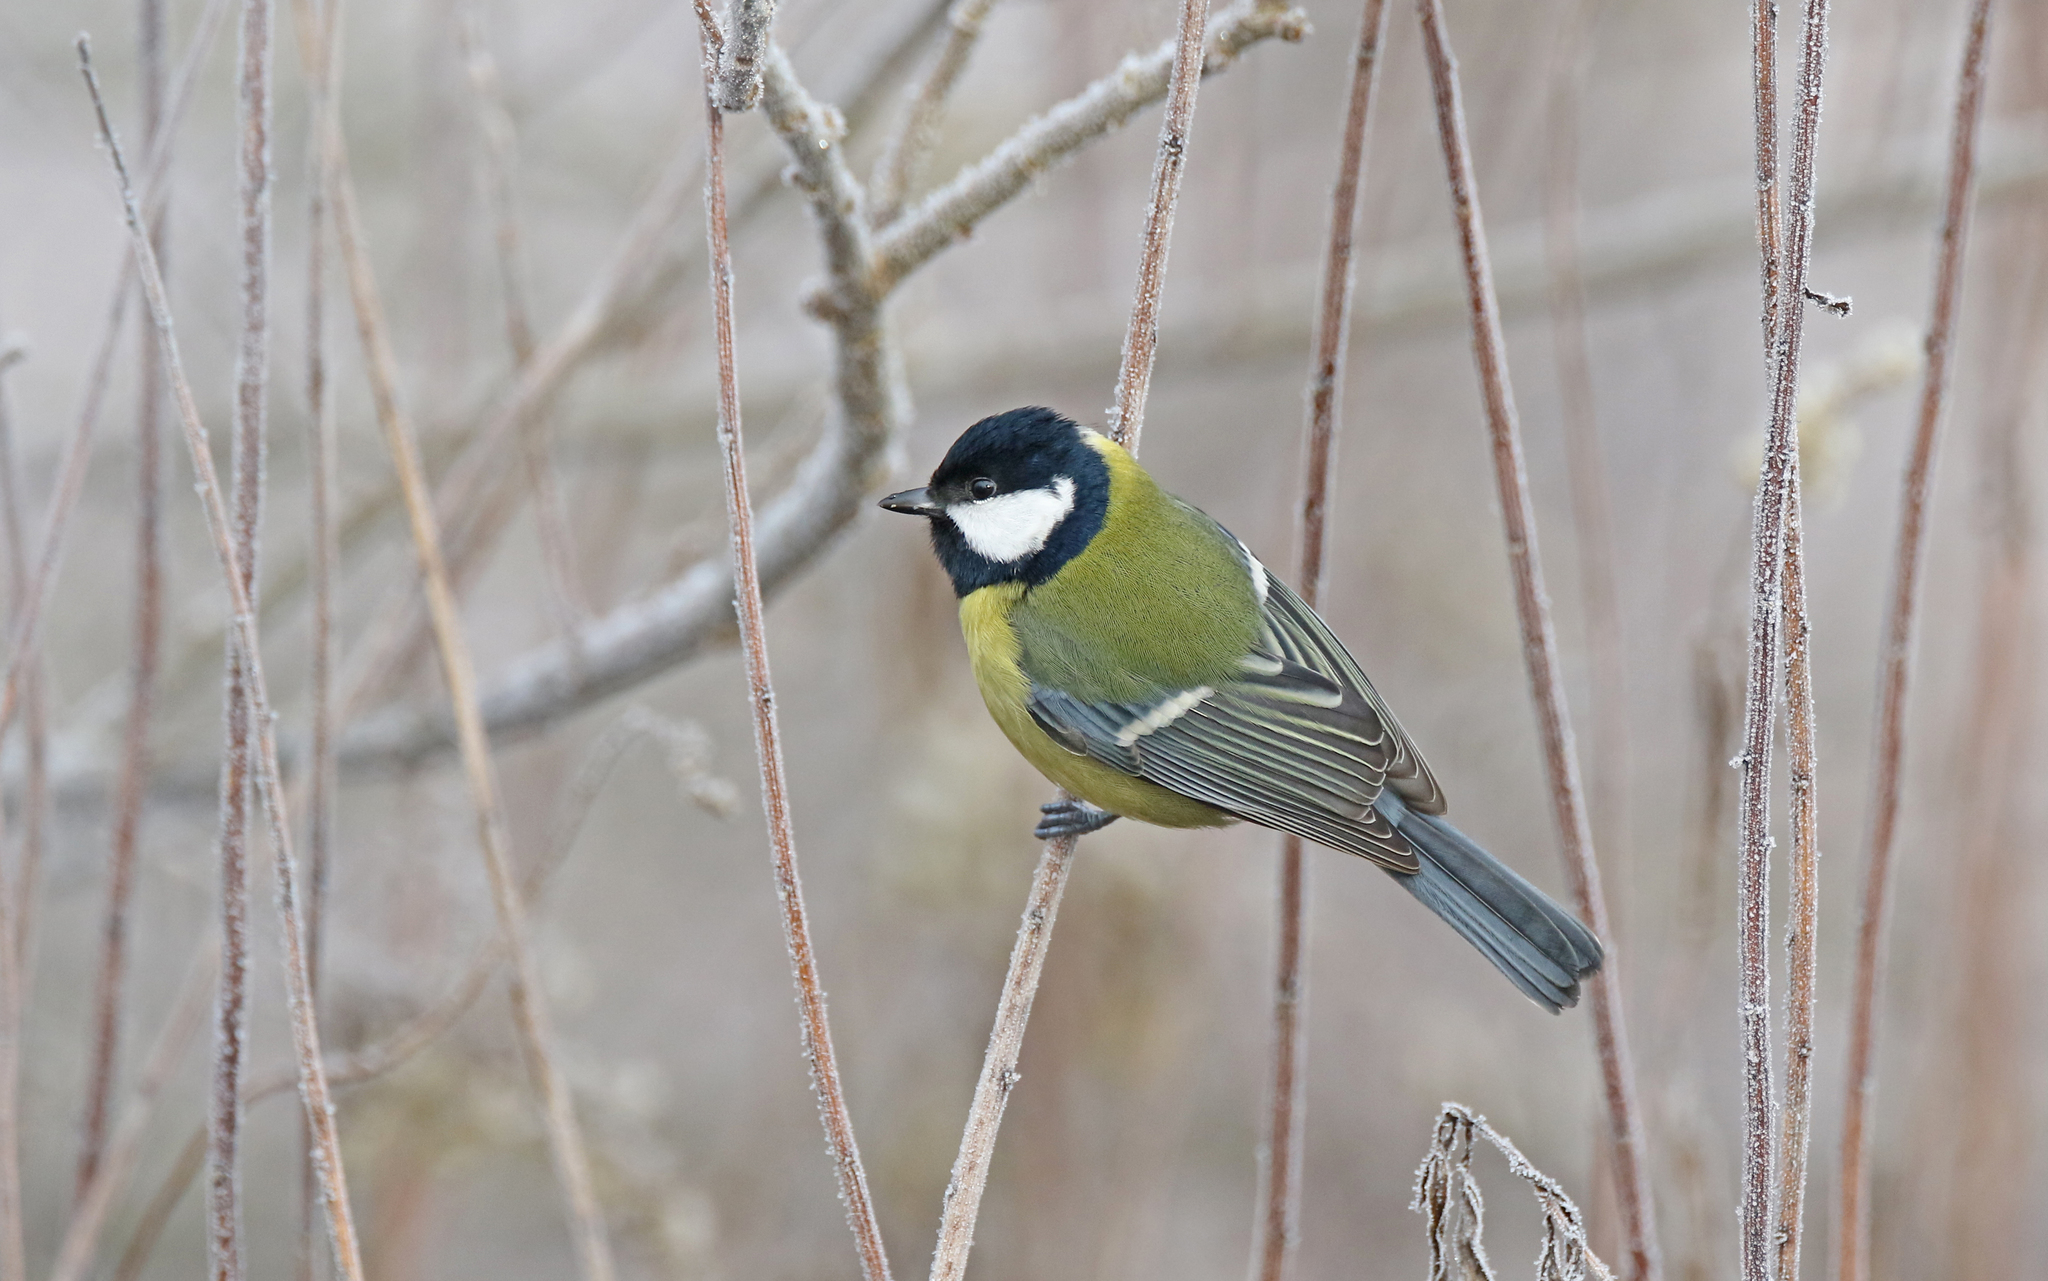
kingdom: Animalia
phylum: Chordata
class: Aves
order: Passeriformes
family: Paridae
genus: Parus
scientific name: Parus major
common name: Great tit
